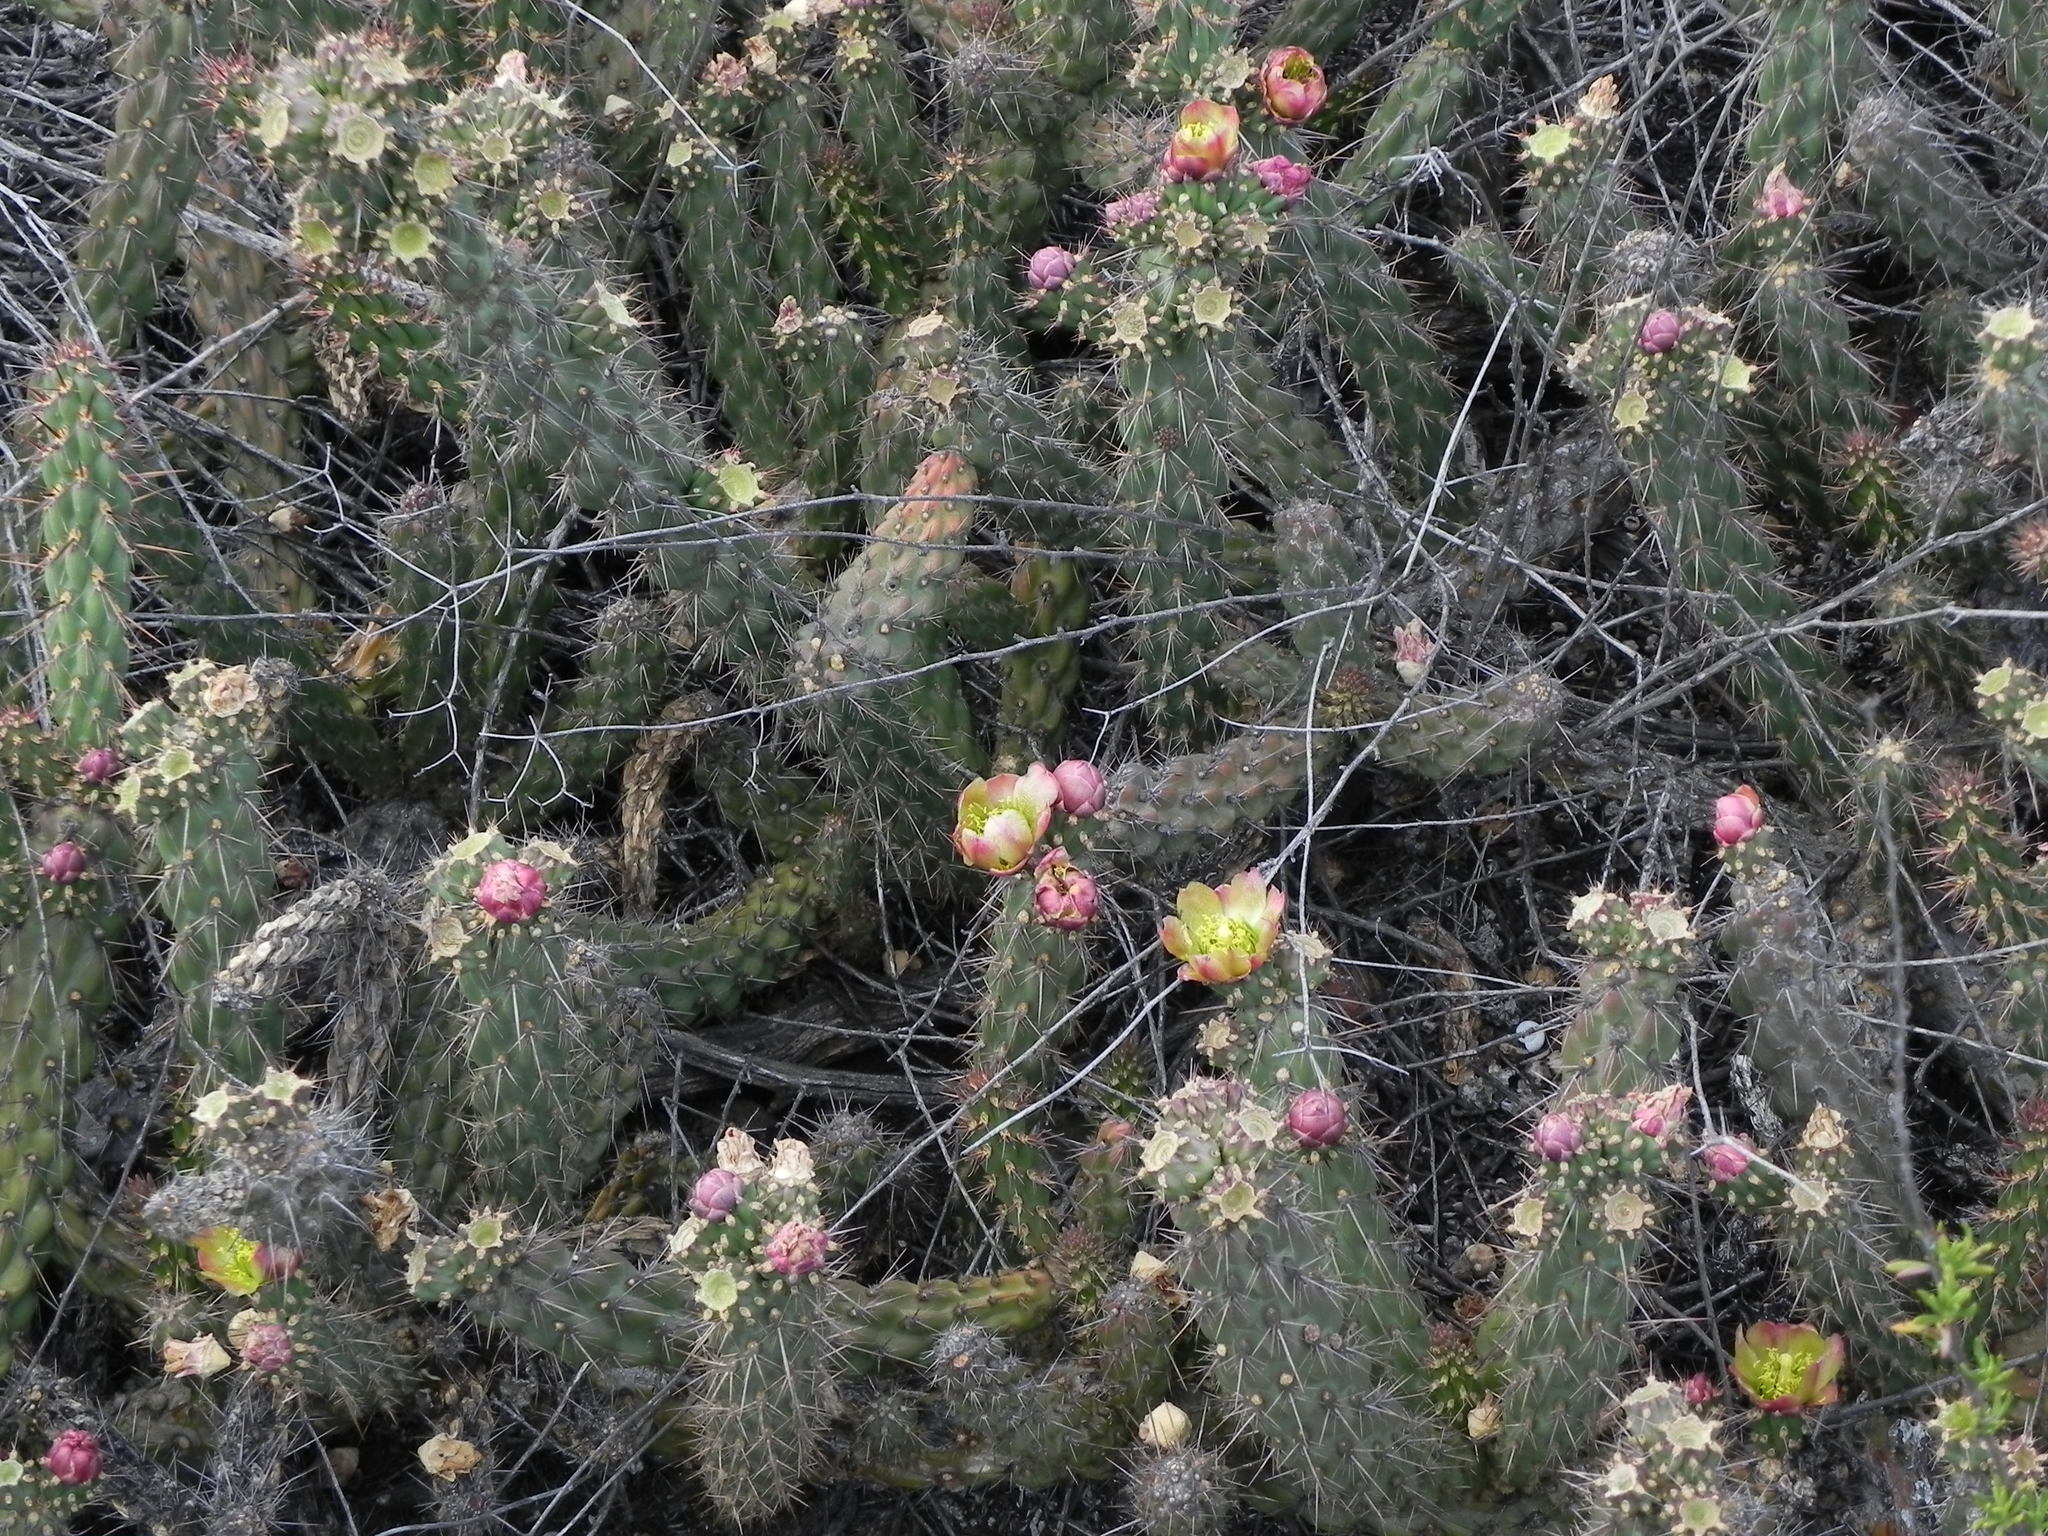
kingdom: Plantae
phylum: Tracheophyta
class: Magnoliopsida
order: Caryophyllales
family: Cactaceae
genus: Cylindropuntia
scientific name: Cylindropuntia californica
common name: Snake cholla
